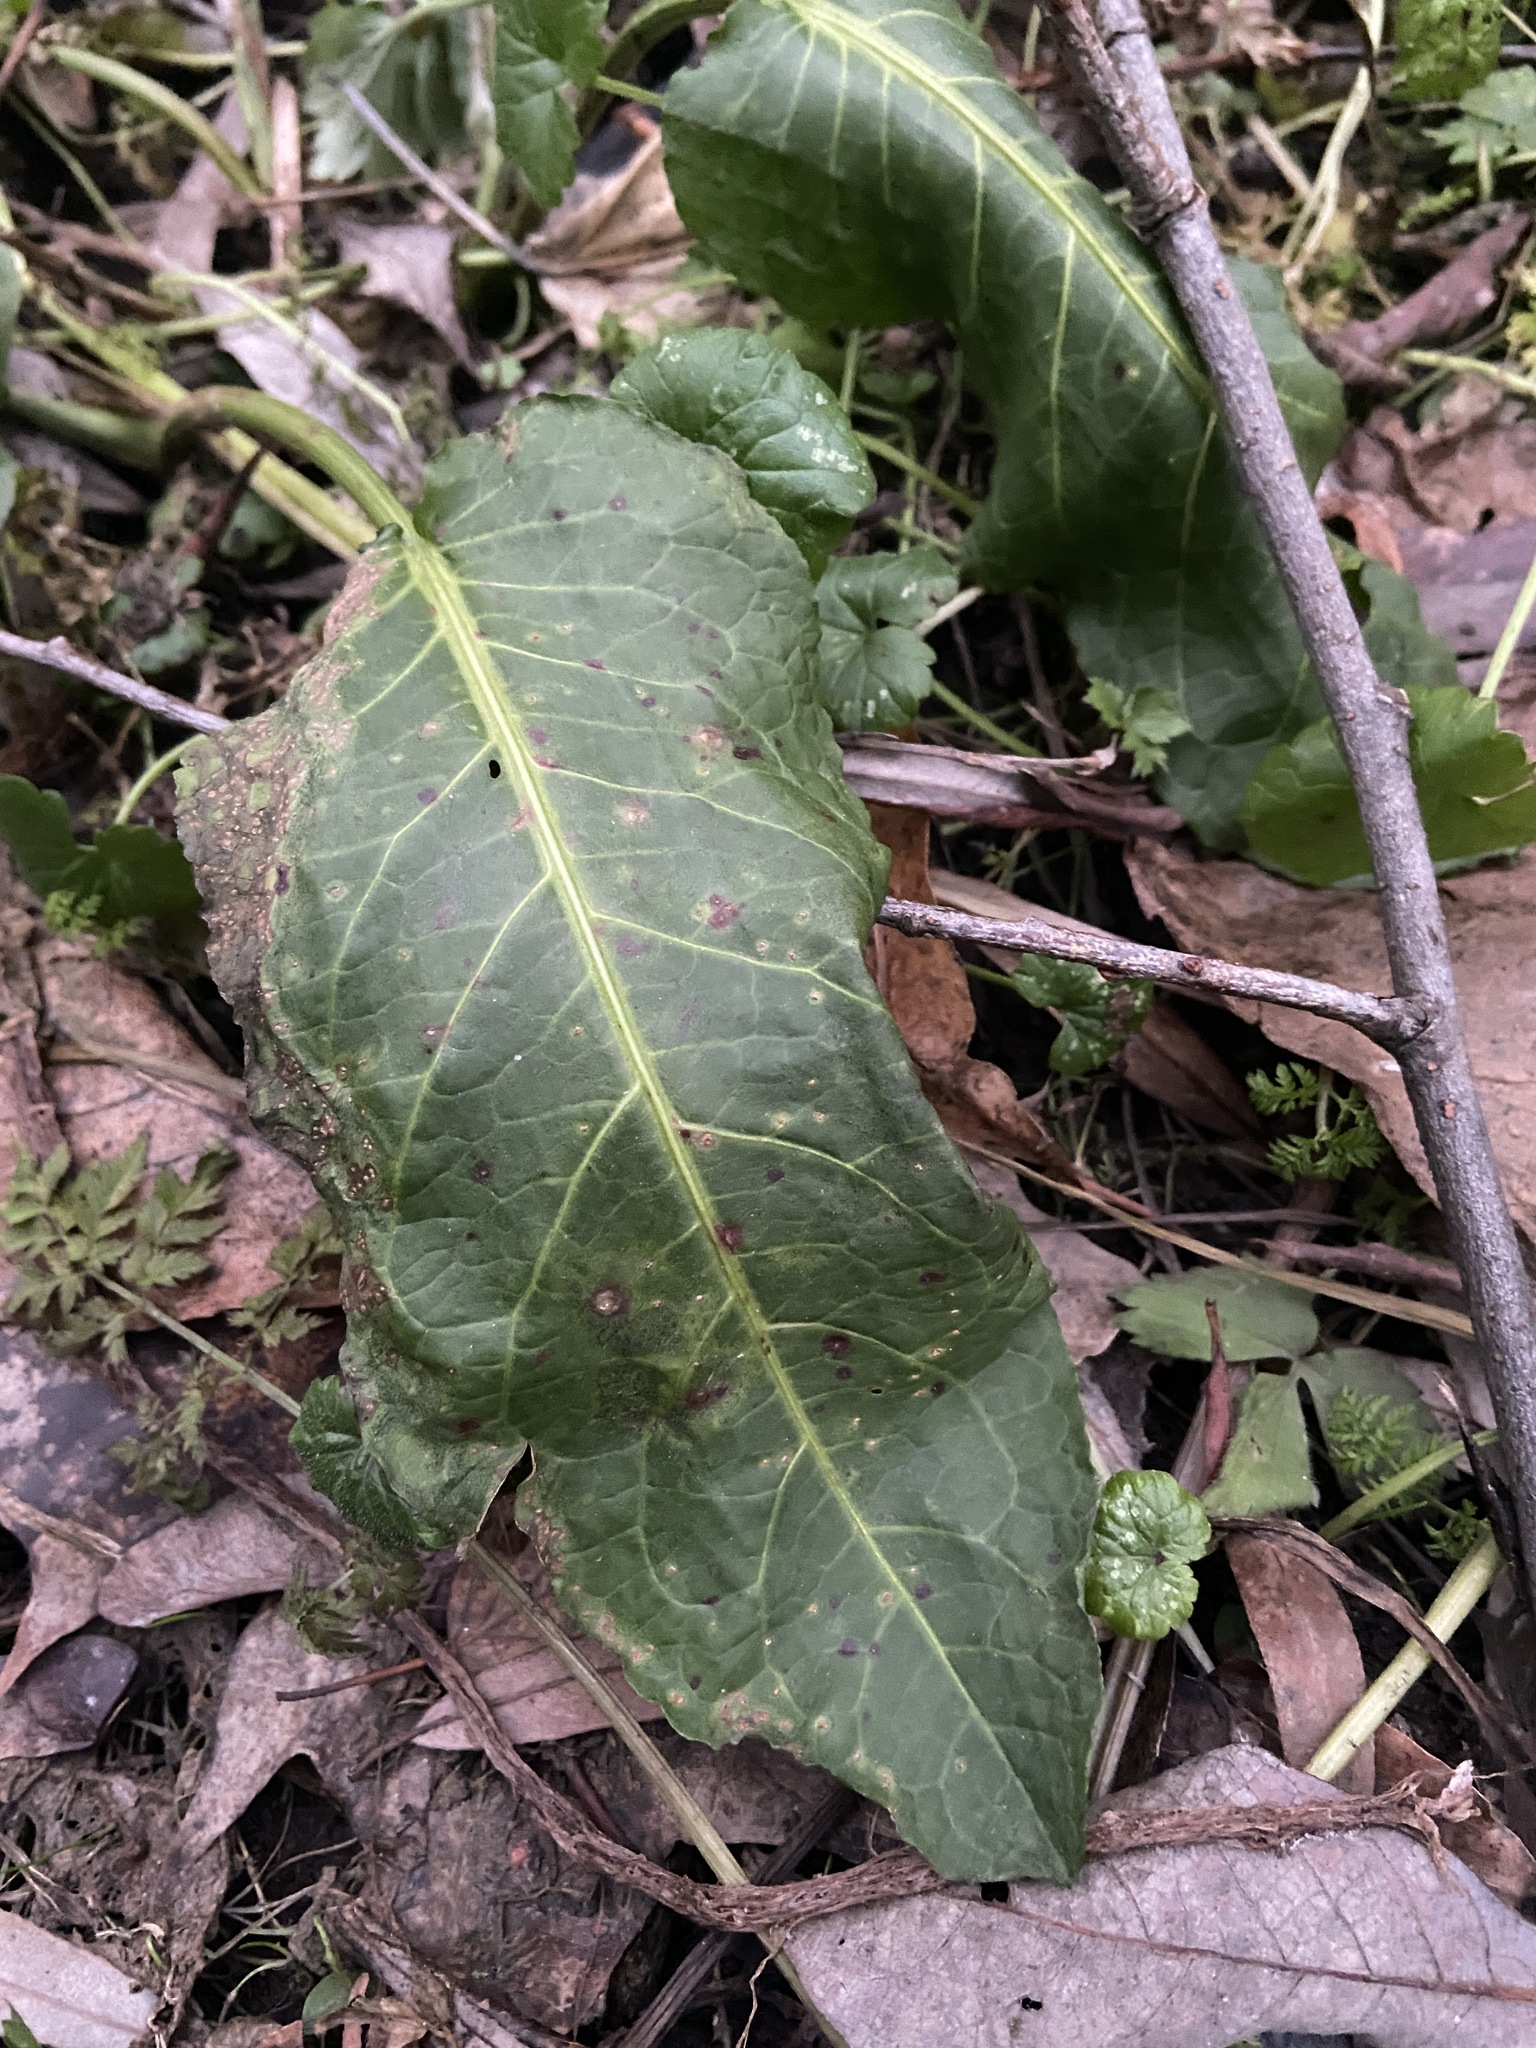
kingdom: Plantae
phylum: Tracheophyta
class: Magnoliopsida
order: Caryophyllales
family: Polygonaceae
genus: Rumex
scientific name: Rumex obtusifolius
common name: Bitter dock
